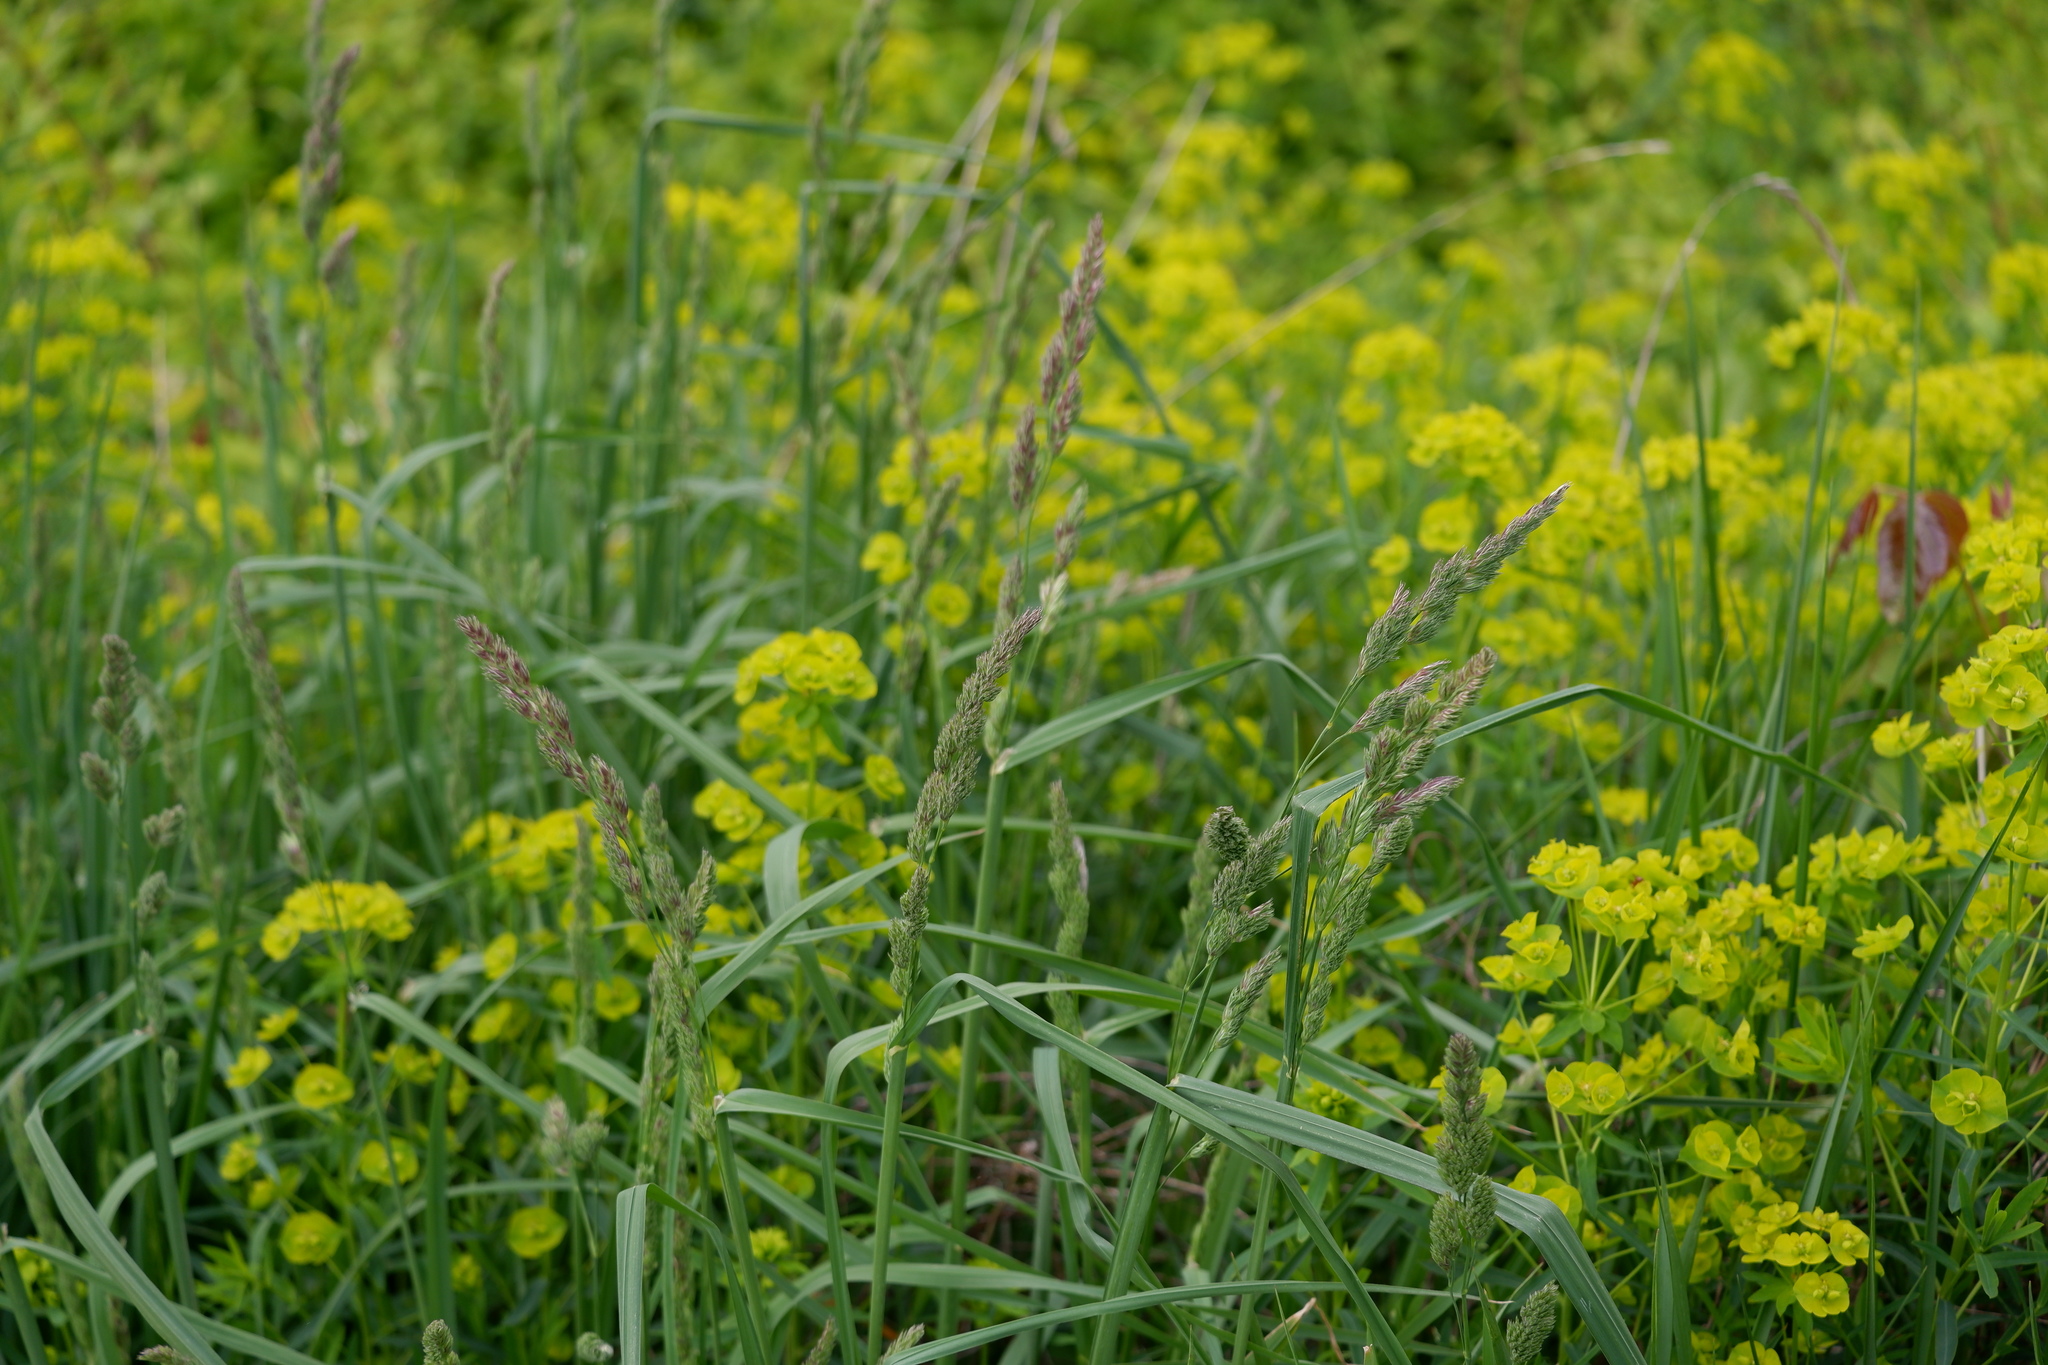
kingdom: Plantae
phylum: Tracheophyta
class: Liliopsida
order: Poales
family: Poaceae
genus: Dactylis
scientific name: Dactylis glomerata
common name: Orchardgrass
